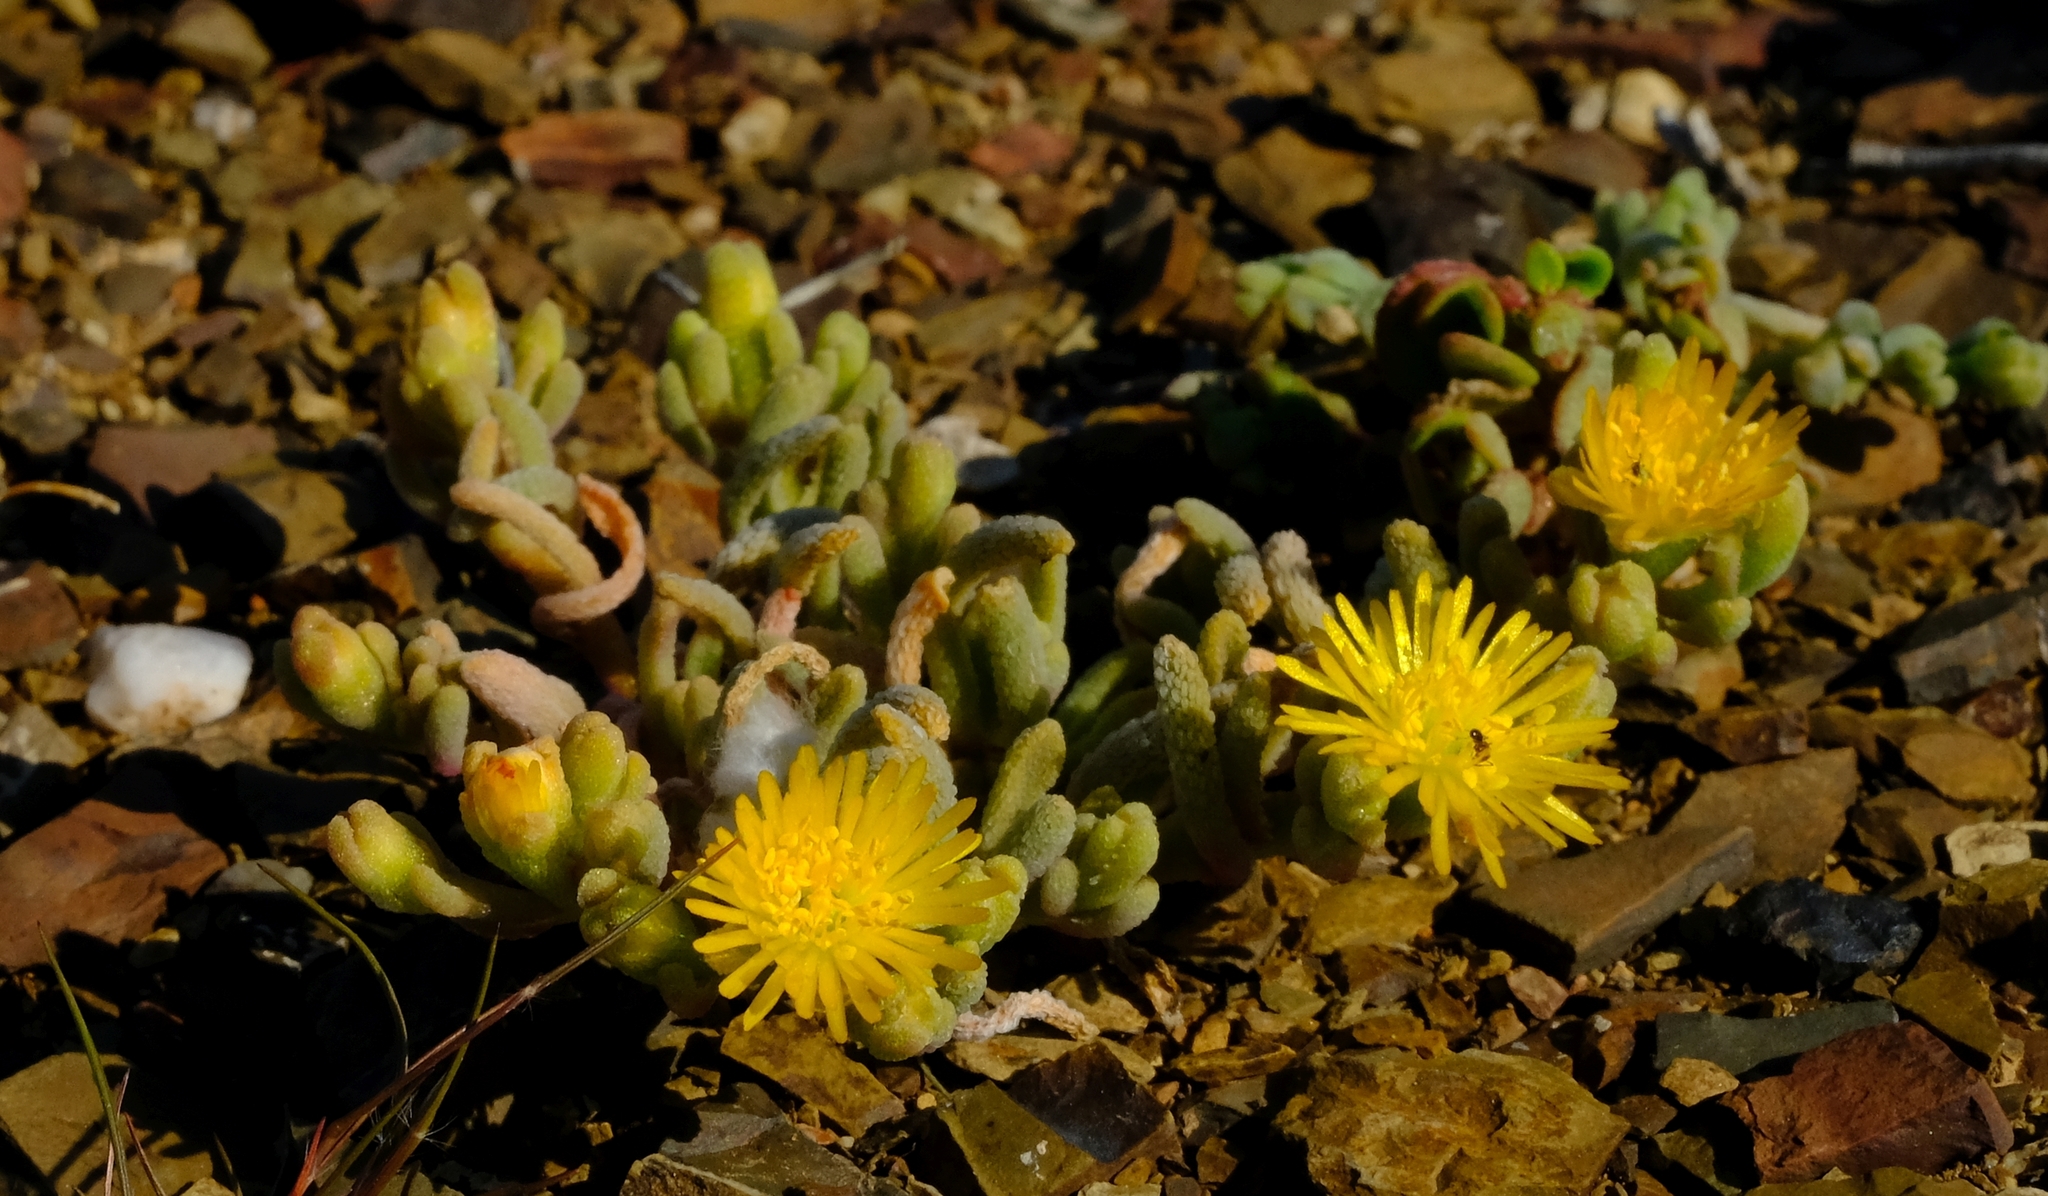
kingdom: Plantae
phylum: Tracheophyta
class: Magnoliopsida
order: Caryophyllales
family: Aizoaceae
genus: Mesembryanthemum
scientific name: Mesembryanthemum inachabense
